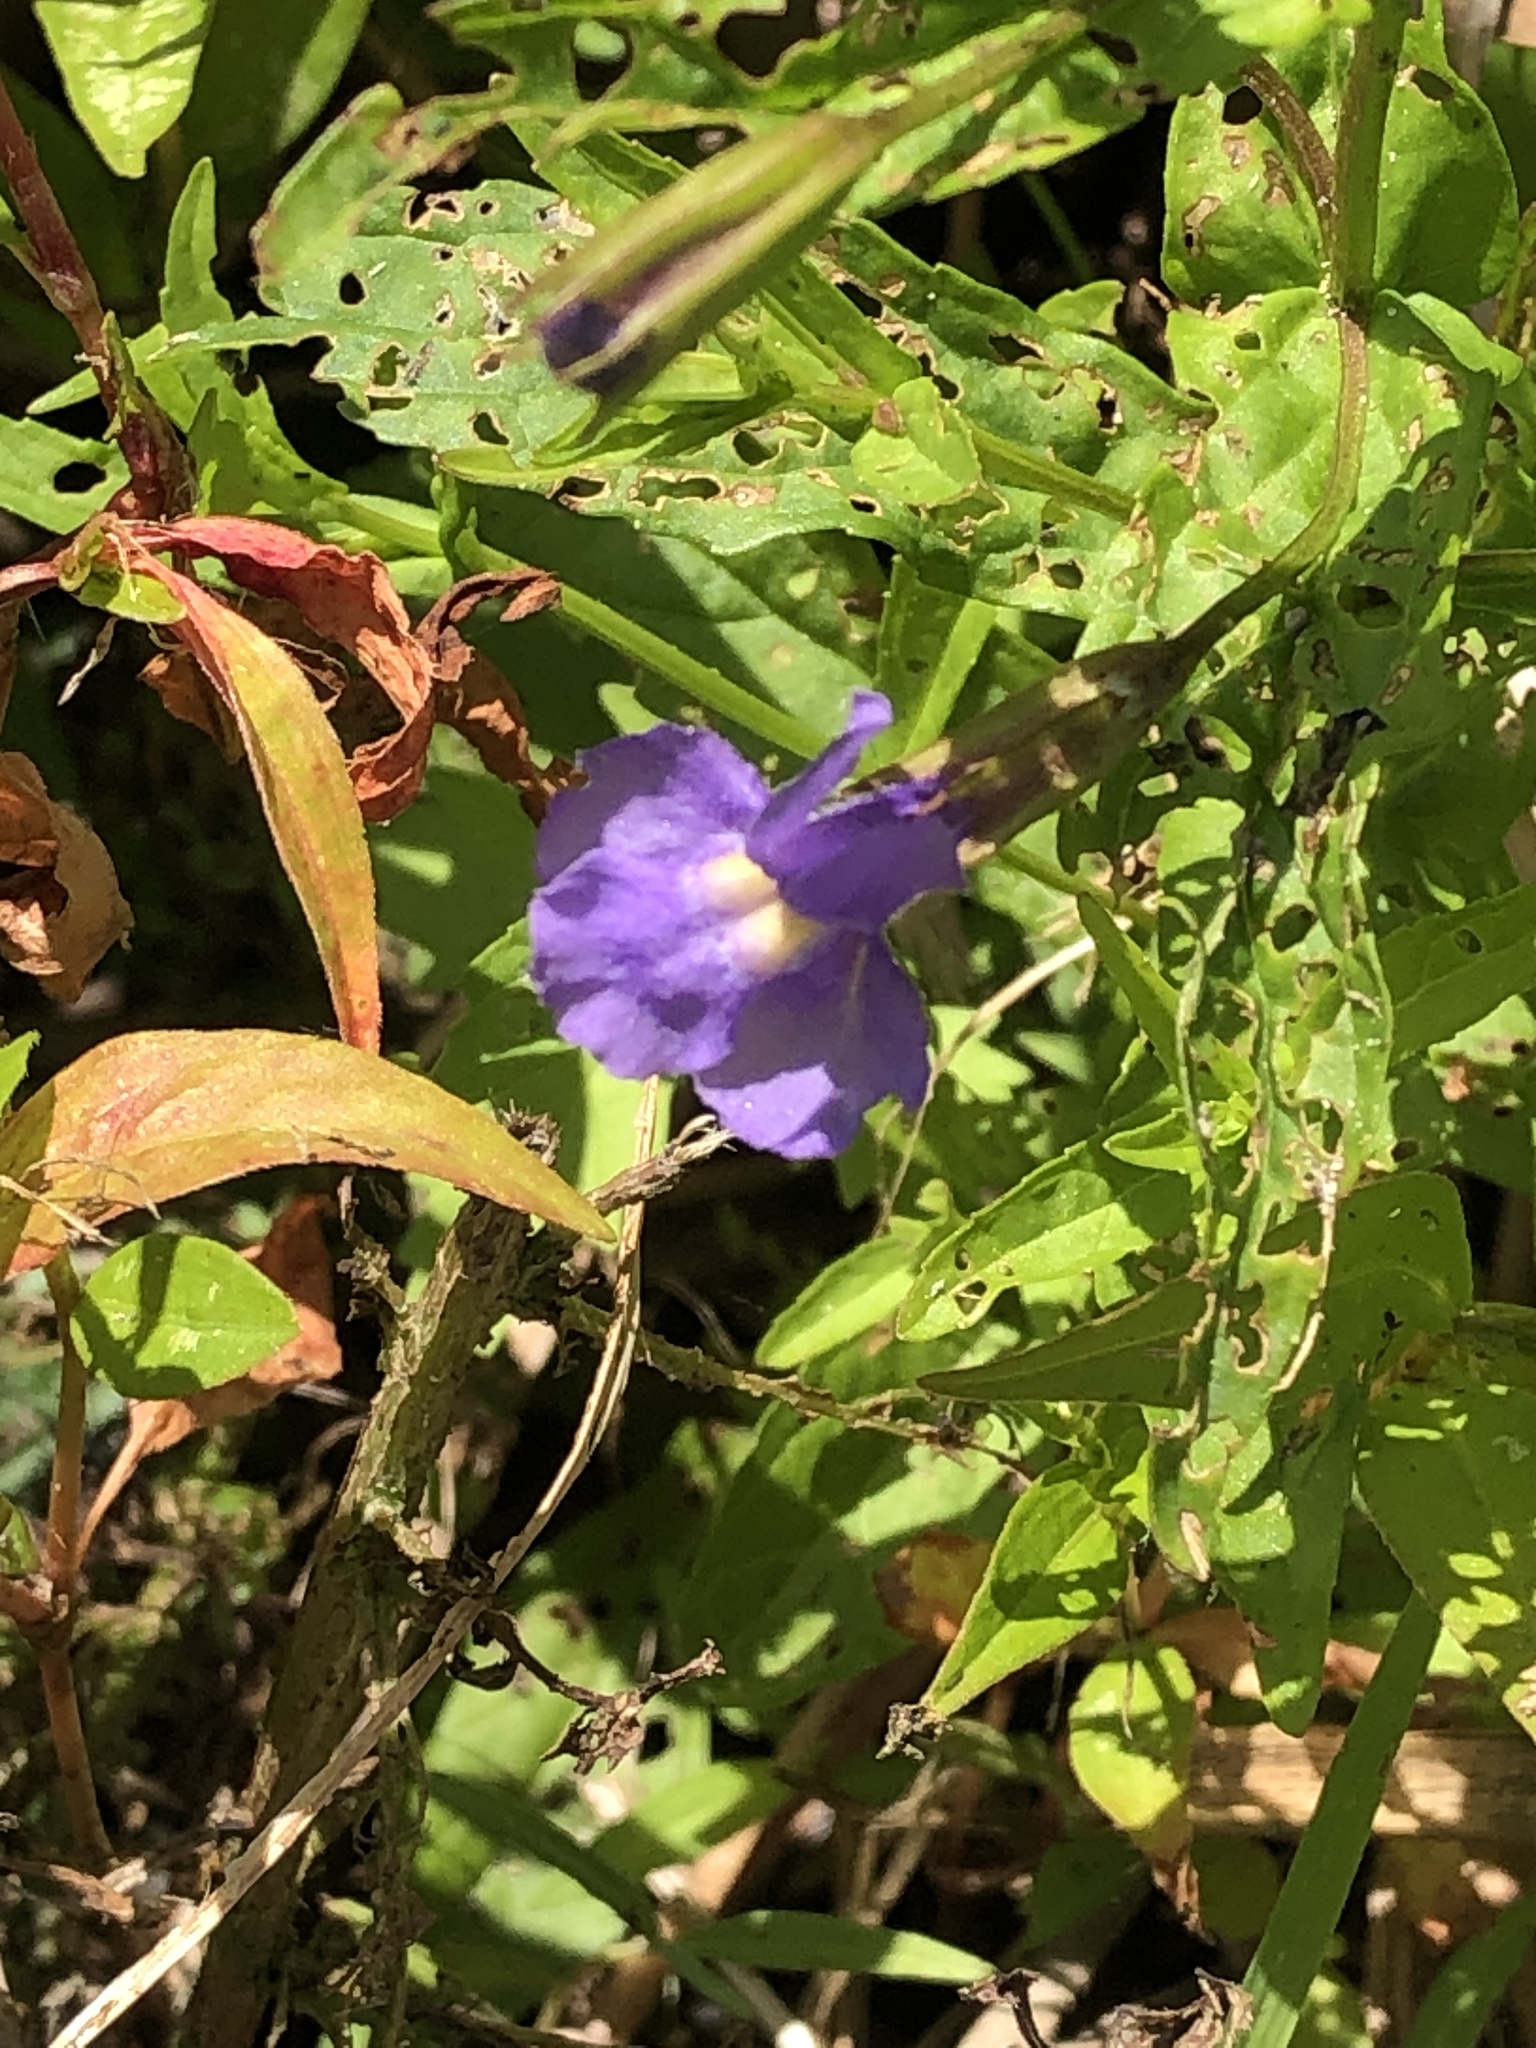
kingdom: Plantae
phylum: Tracheophyta
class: Magnoliopsida
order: Lamiales
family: Phrymaceae
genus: Mimulus
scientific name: Mimulus ringens
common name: Allegheny monkeyflower
